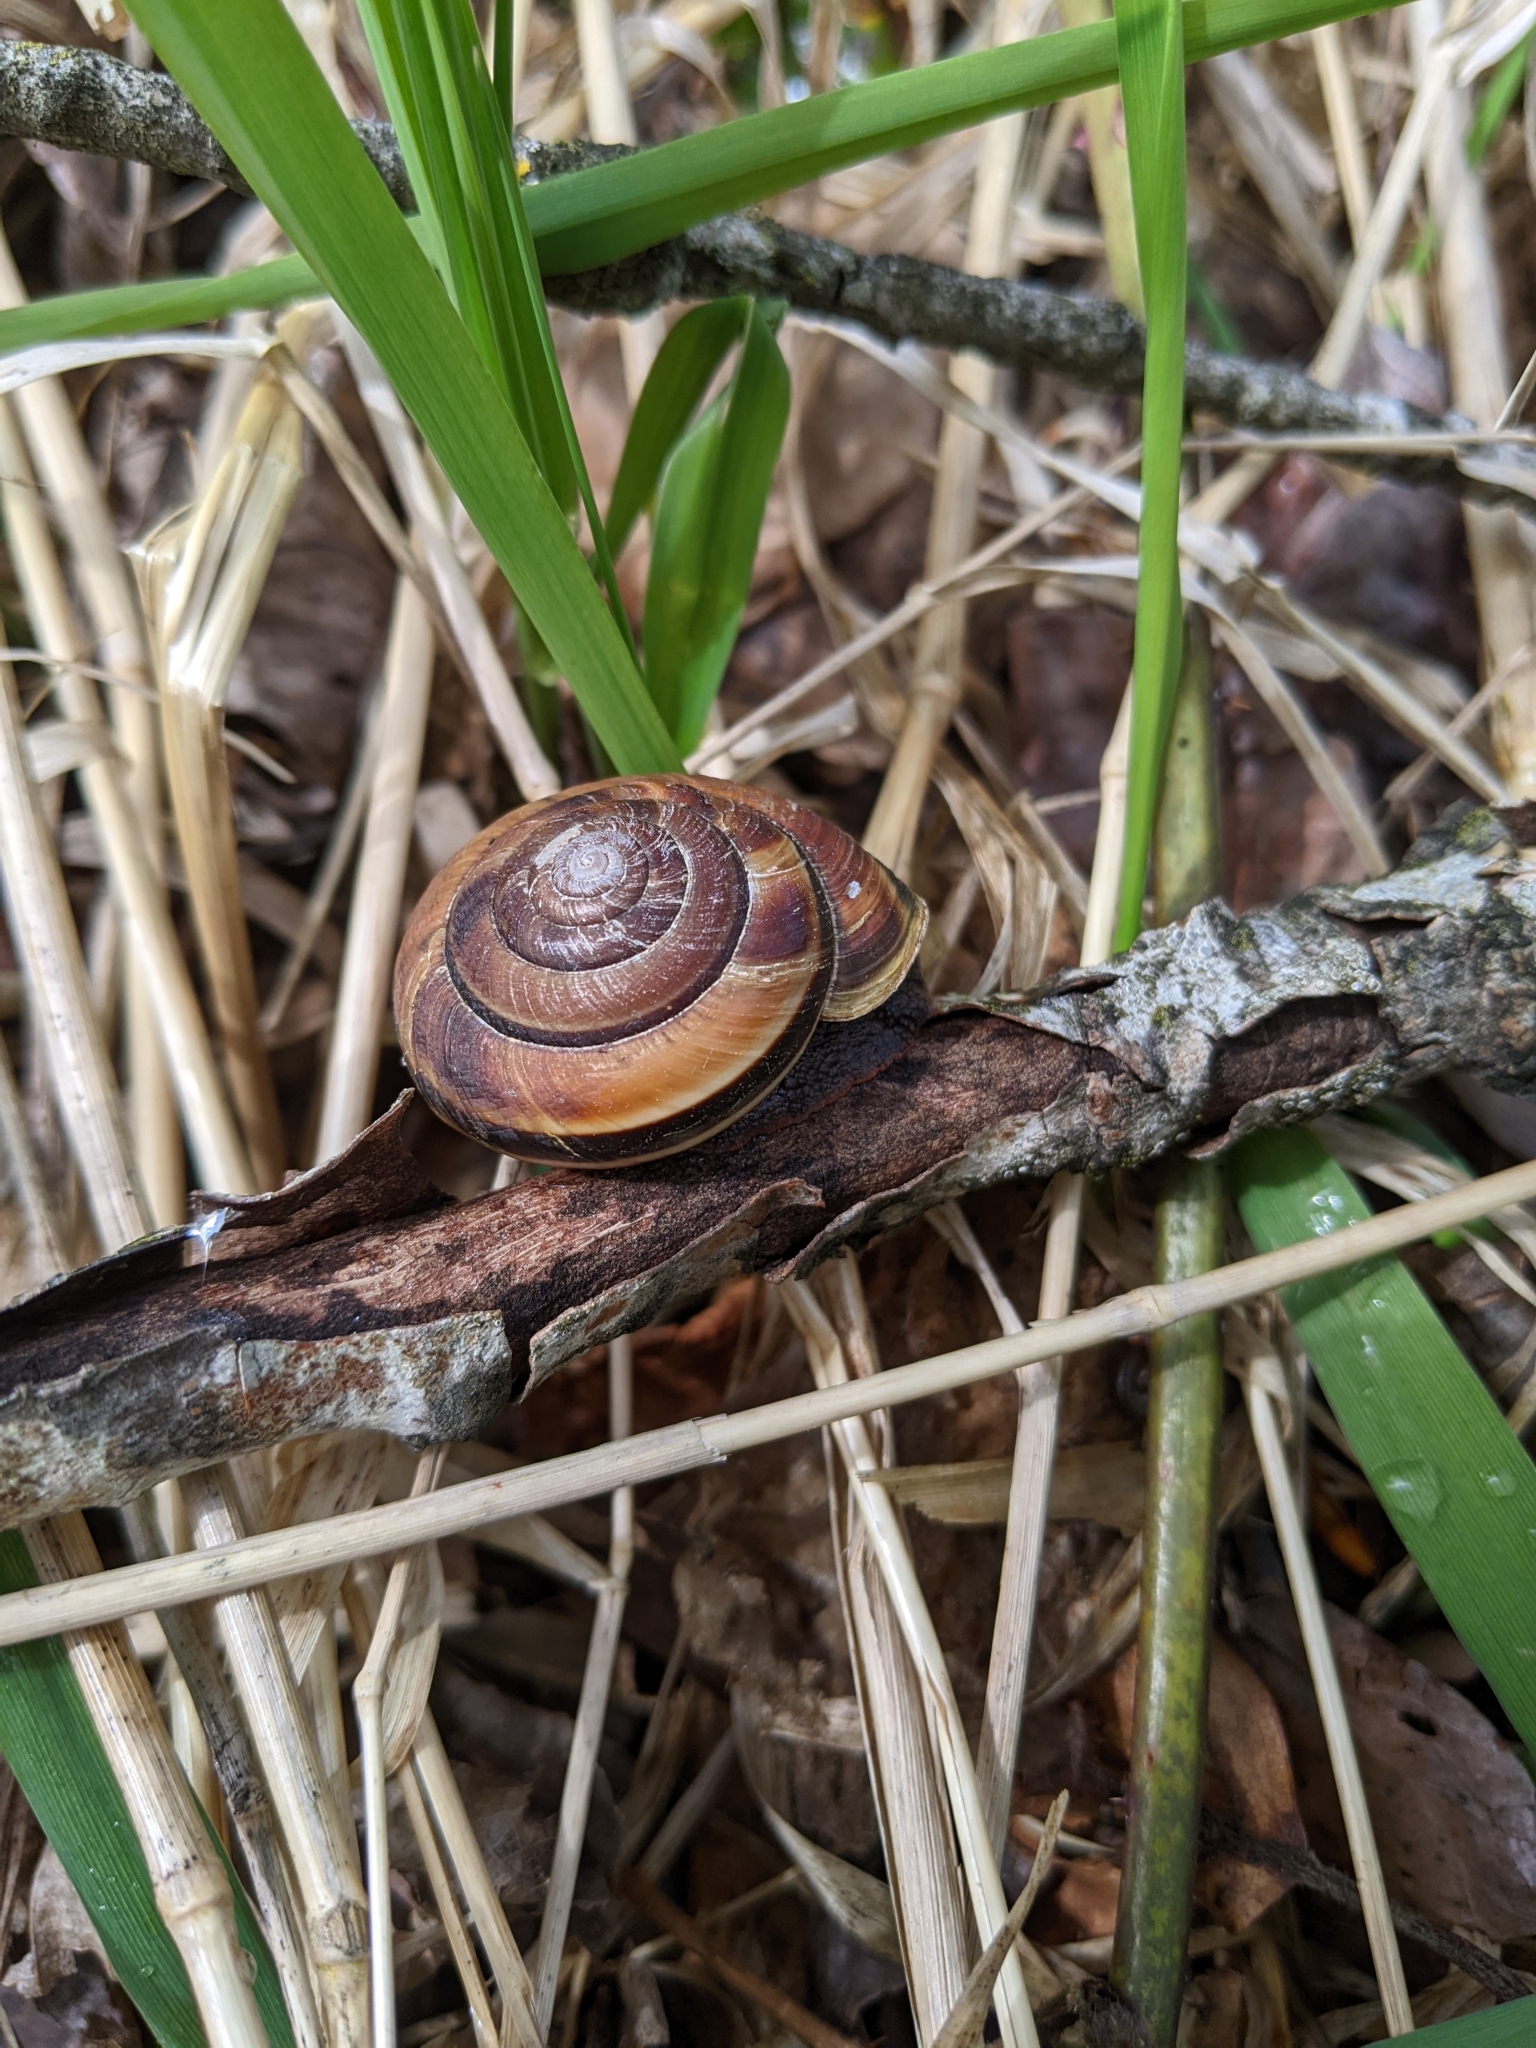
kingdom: Animalia
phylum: Mollusca
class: Gastropoda
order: Stylommatophora
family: Xanthonychidae
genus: Monadenia
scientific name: Monadenia fidelis
